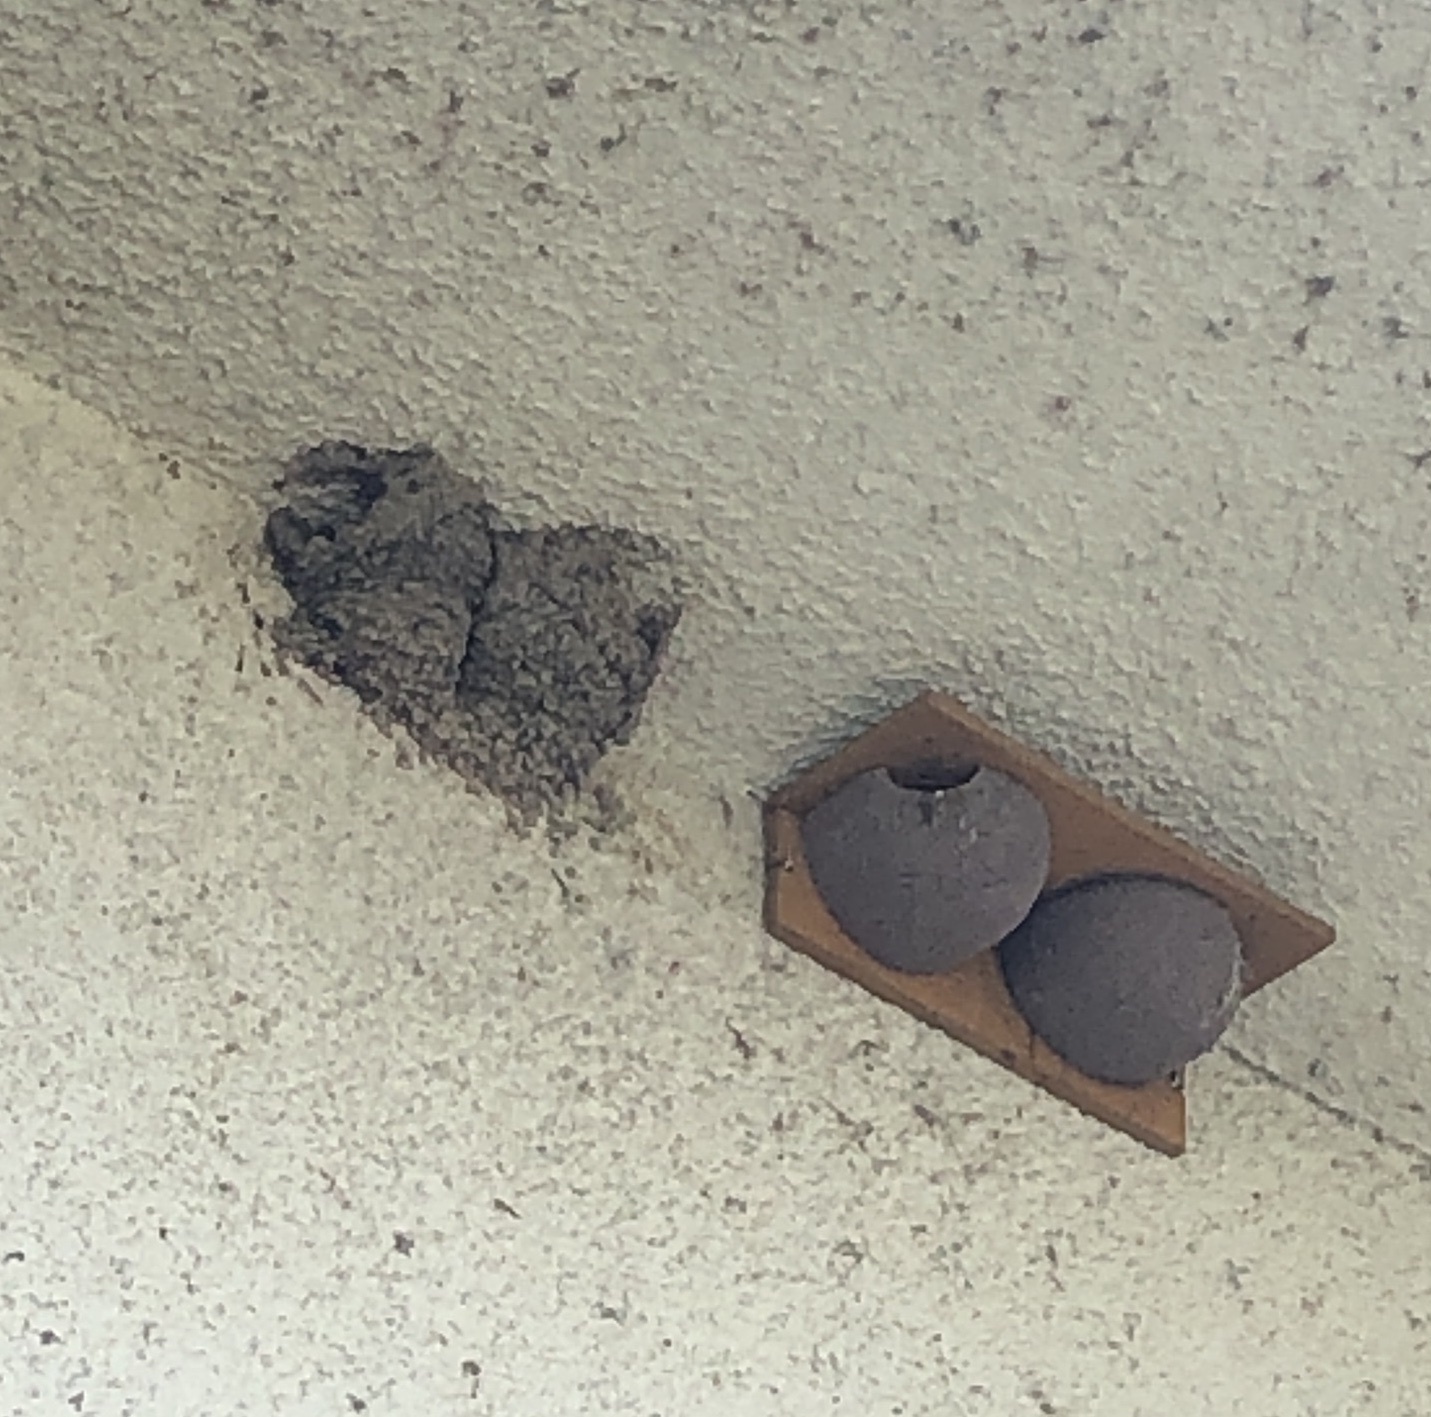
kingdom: Animalia
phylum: Chordata
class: Aves
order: Passeriformes
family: Hirundinidae
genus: Delichon
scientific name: Delichon urbicum
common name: Common house martin
